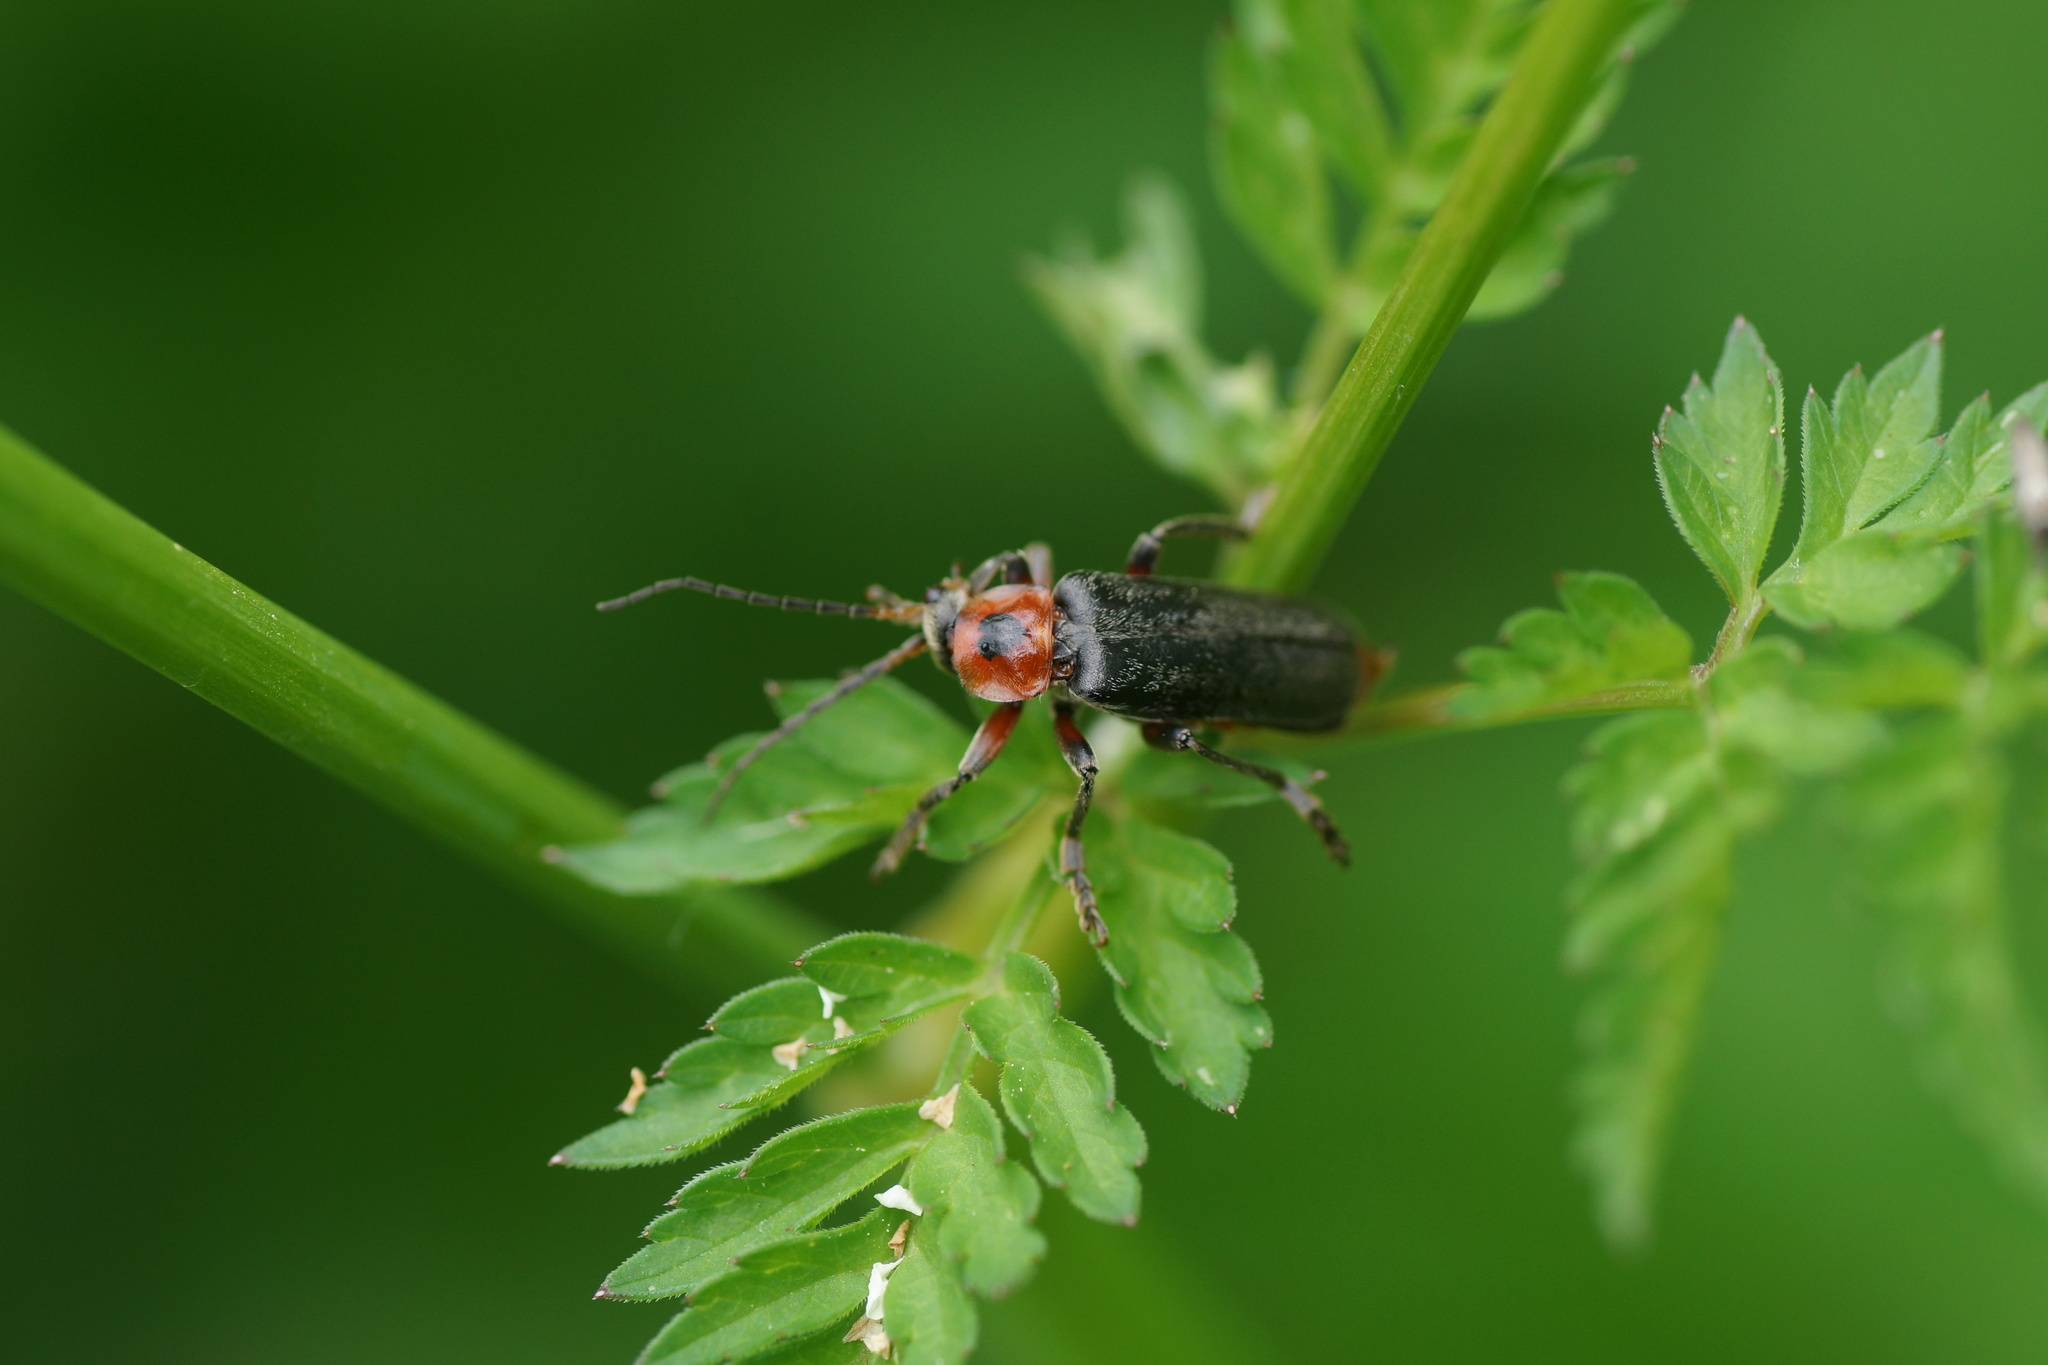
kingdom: Animalia
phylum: Arthropoda
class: Insecta
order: Coleoptera
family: Cantharidae
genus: Cantharis
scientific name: Cantharis rustica
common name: Soldier beetle
